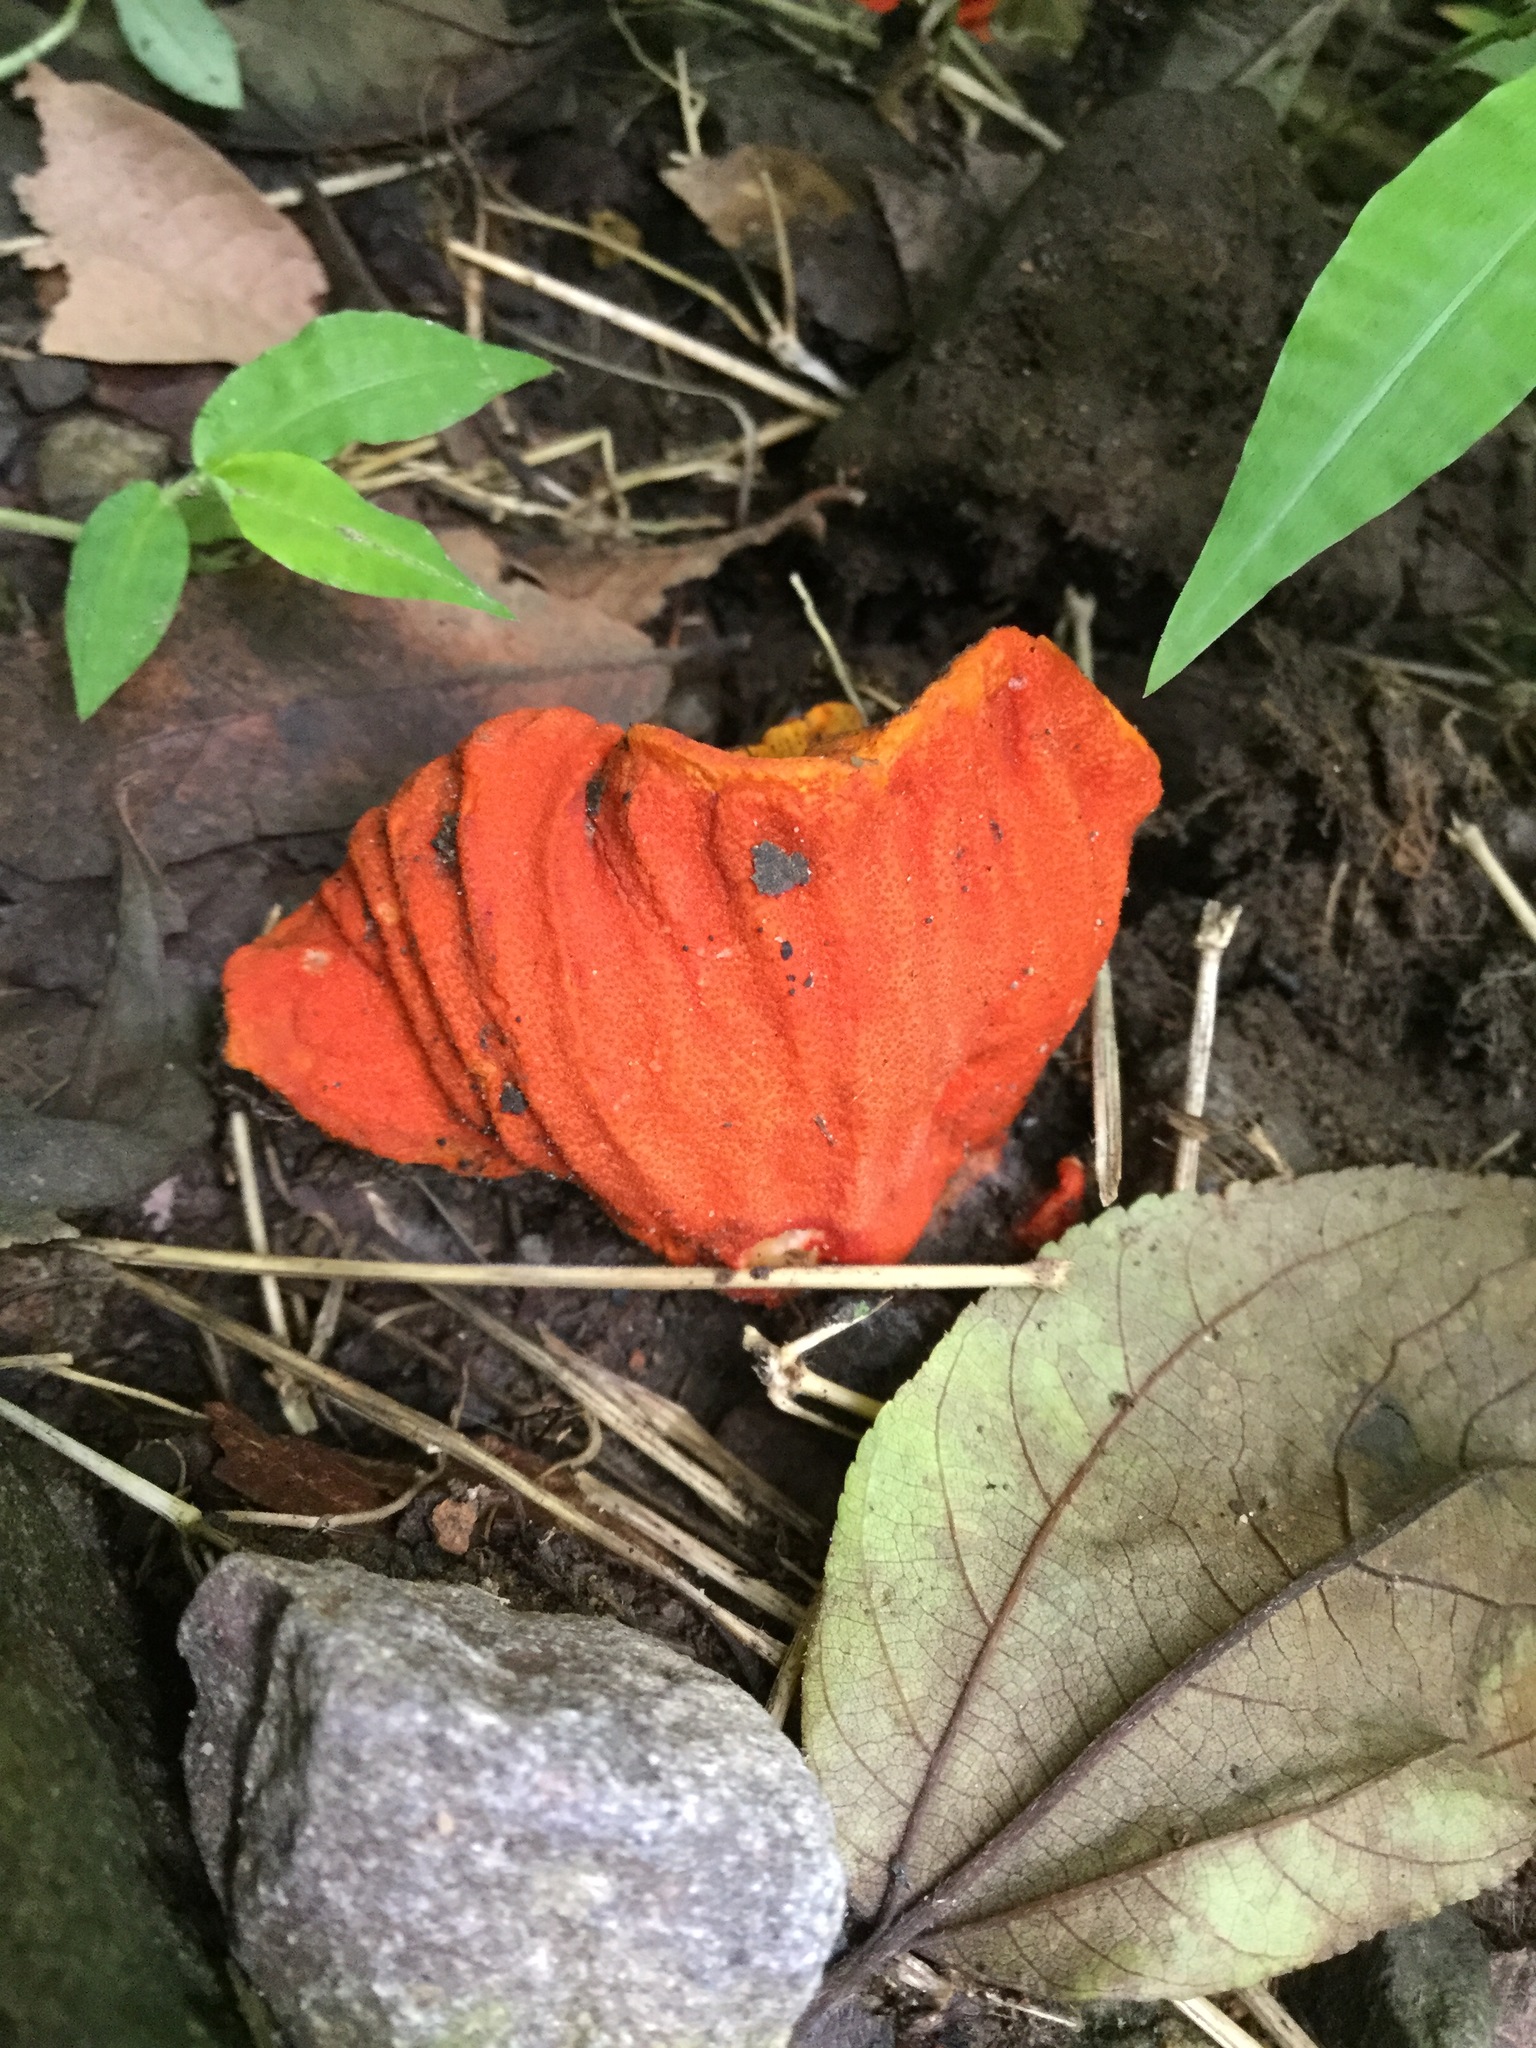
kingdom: Fungi
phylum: Ascomycota
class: Sordariomycetes
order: Hypocreales
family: Hypocreaceae
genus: Hypomyces
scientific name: Hypomyces lactifluorum
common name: Lobster mushroom
